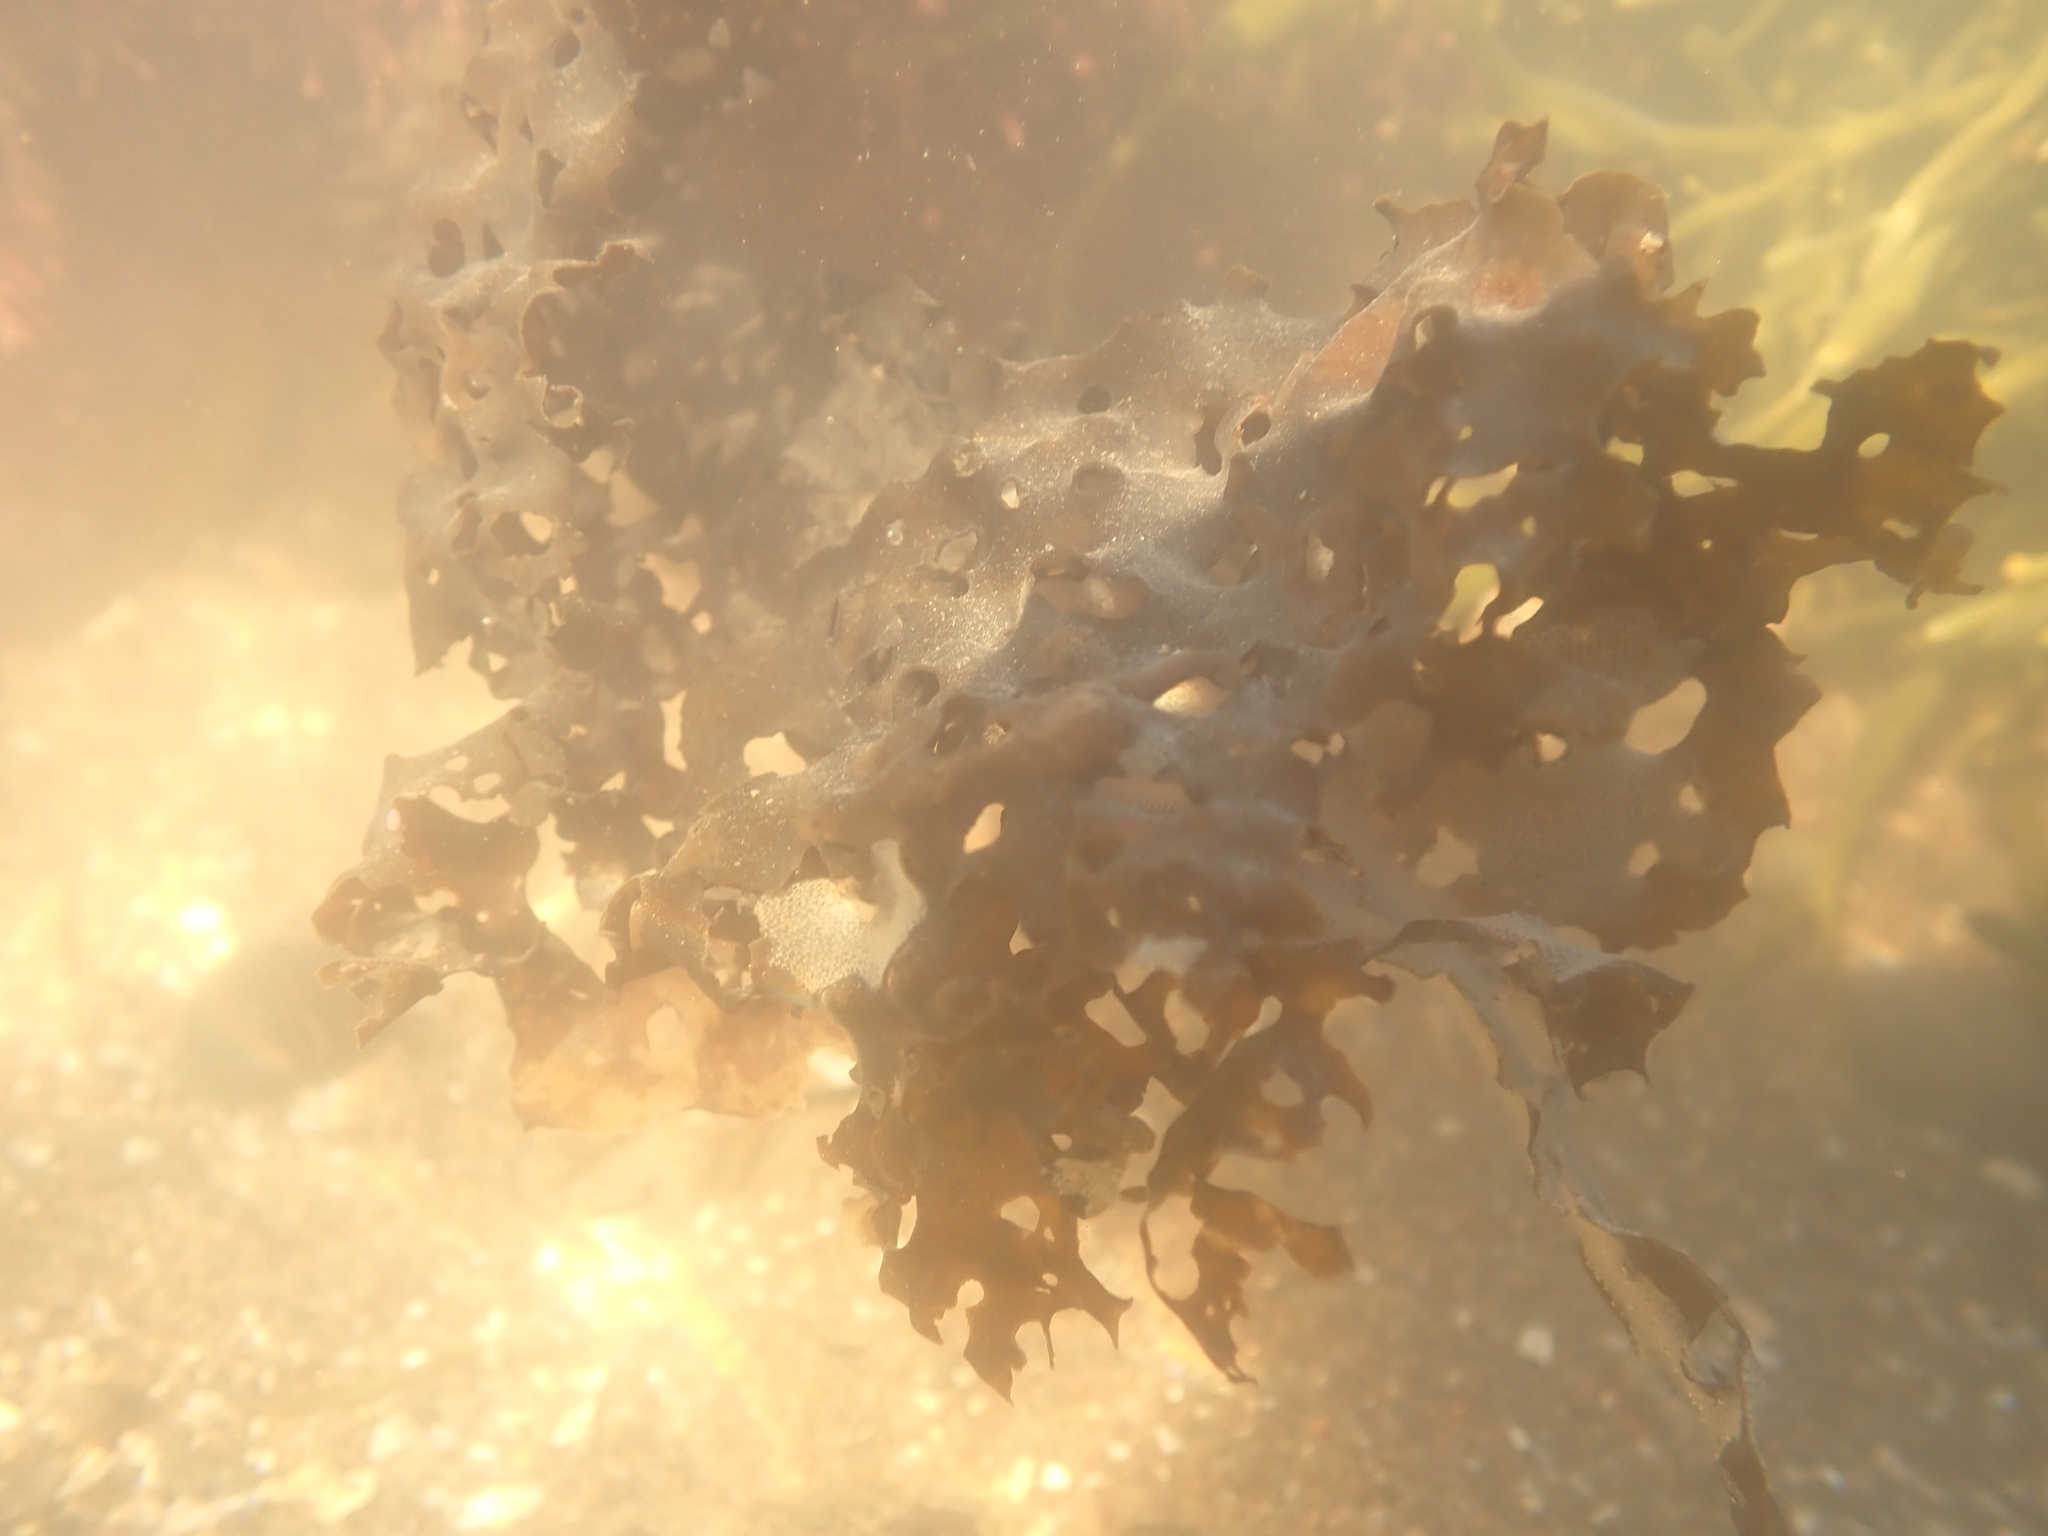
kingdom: Chromista
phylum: Ochrophyta
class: Phaeophyceae
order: Laminariales
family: Costariaceae
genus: Agarum
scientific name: Agarum clathratum
